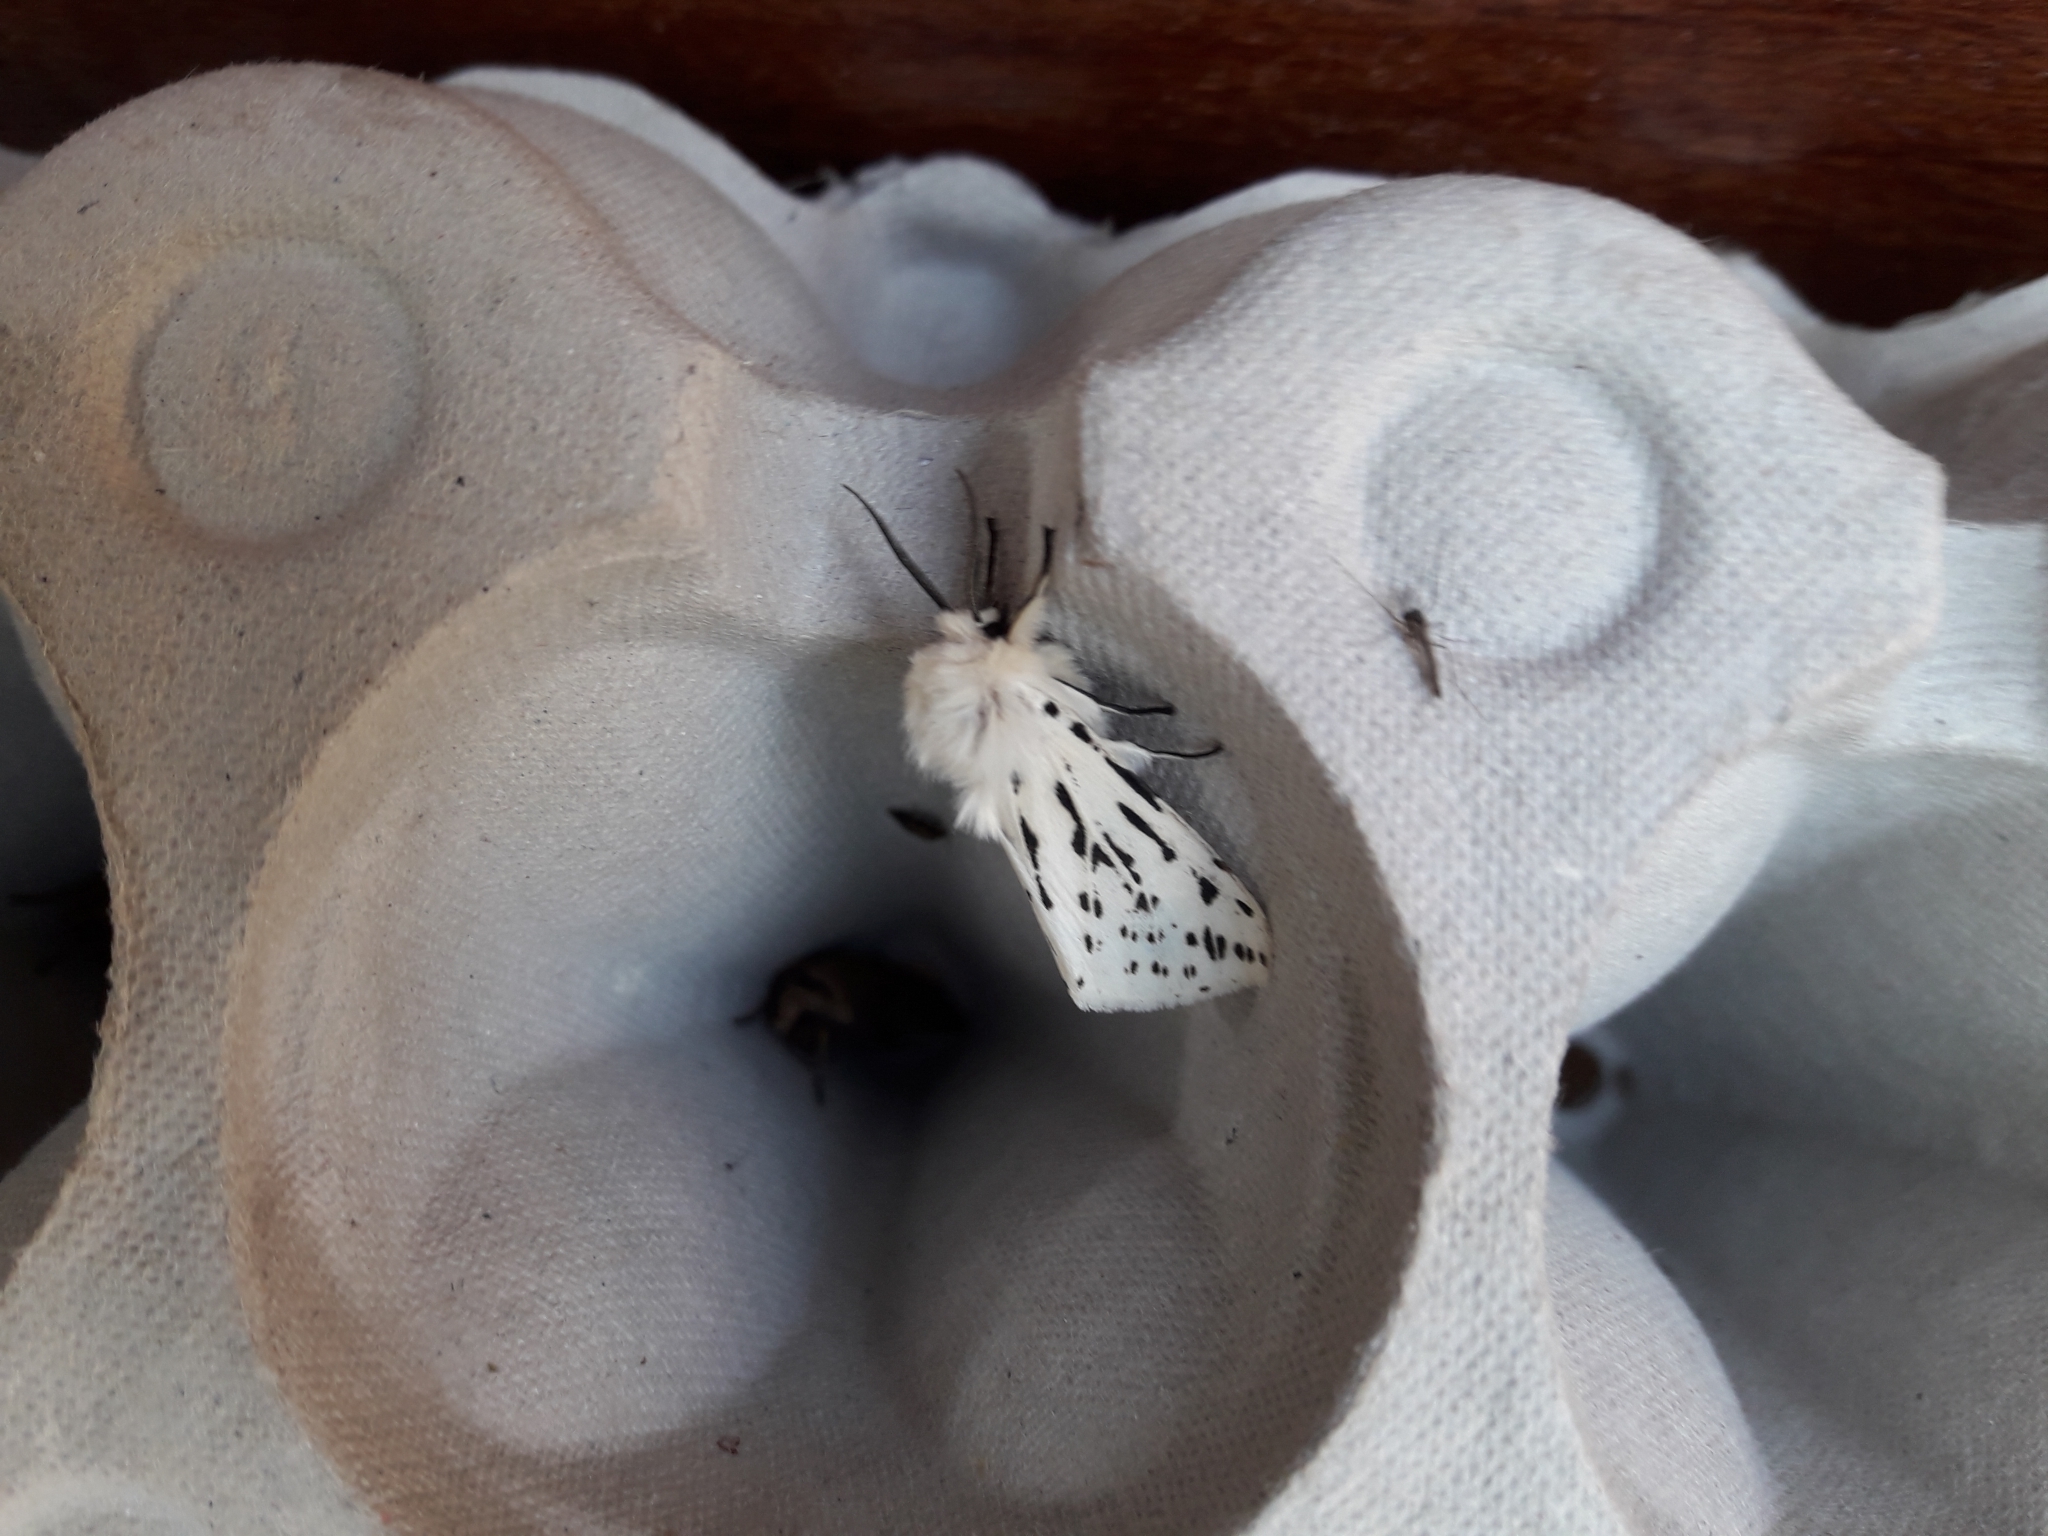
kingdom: Animalia
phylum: Arthropoda
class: Insecta
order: Lepidoptera
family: Erebidae
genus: Spilosoma
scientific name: Spilosoma lubricipeda
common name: White ermine
